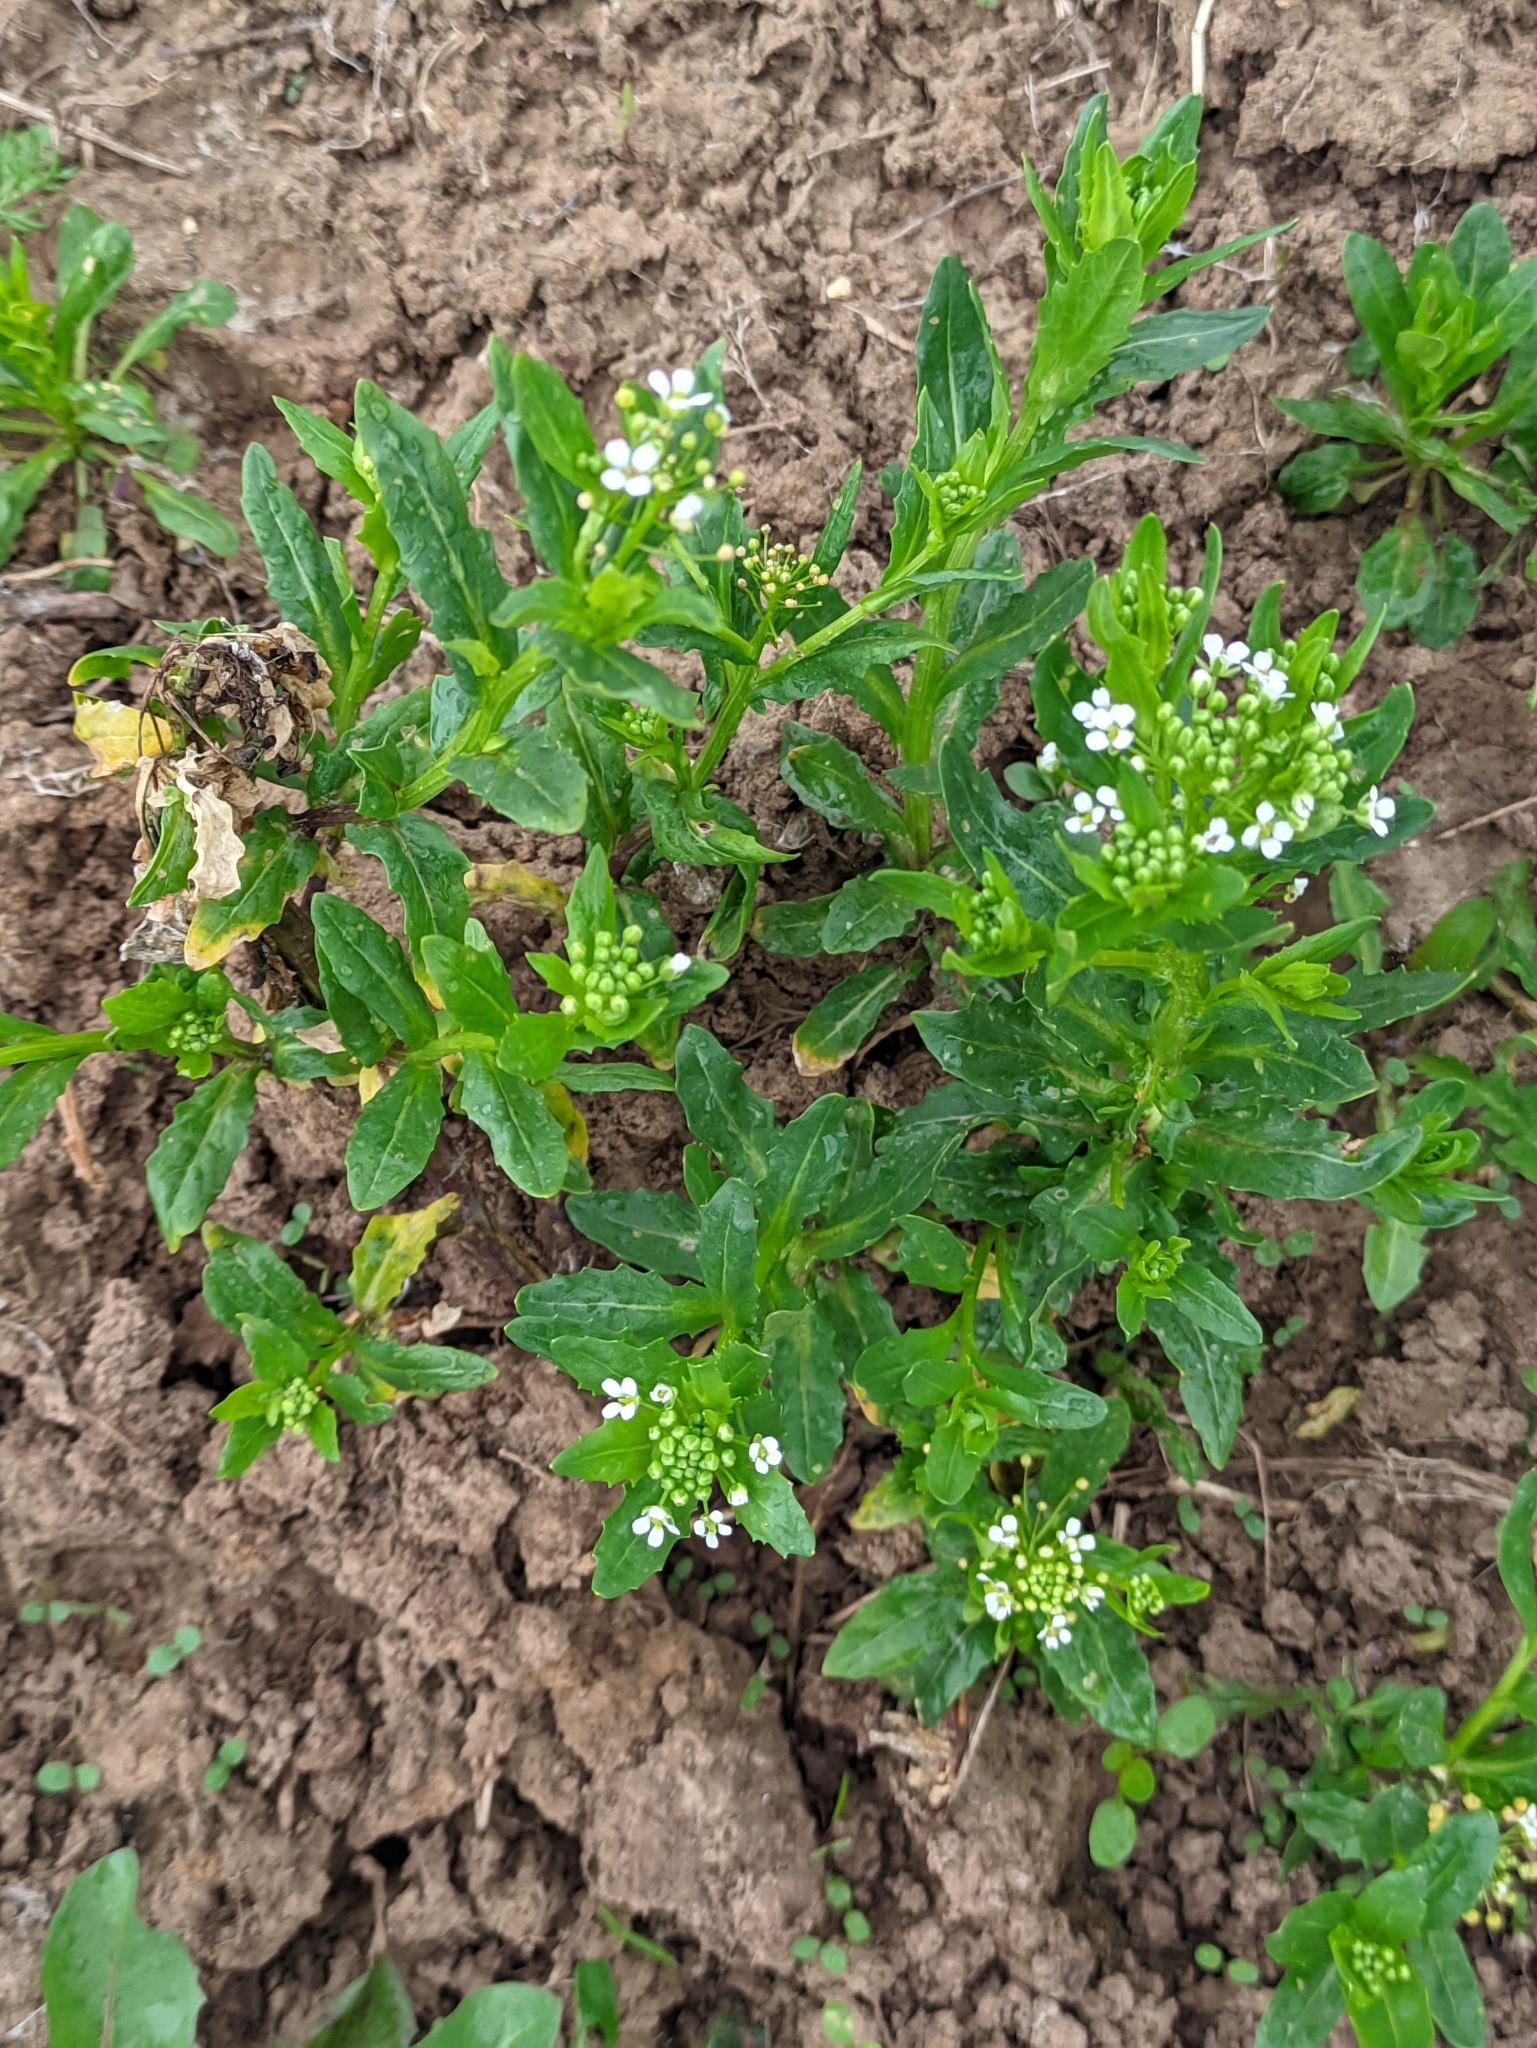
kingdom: Plantae
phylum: Tracheophyta
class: Magnoliopsida
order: Brassicales
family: Brassicaceae
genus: Thlaspi
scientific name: Thlaspi arvense
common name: Field pennycress
